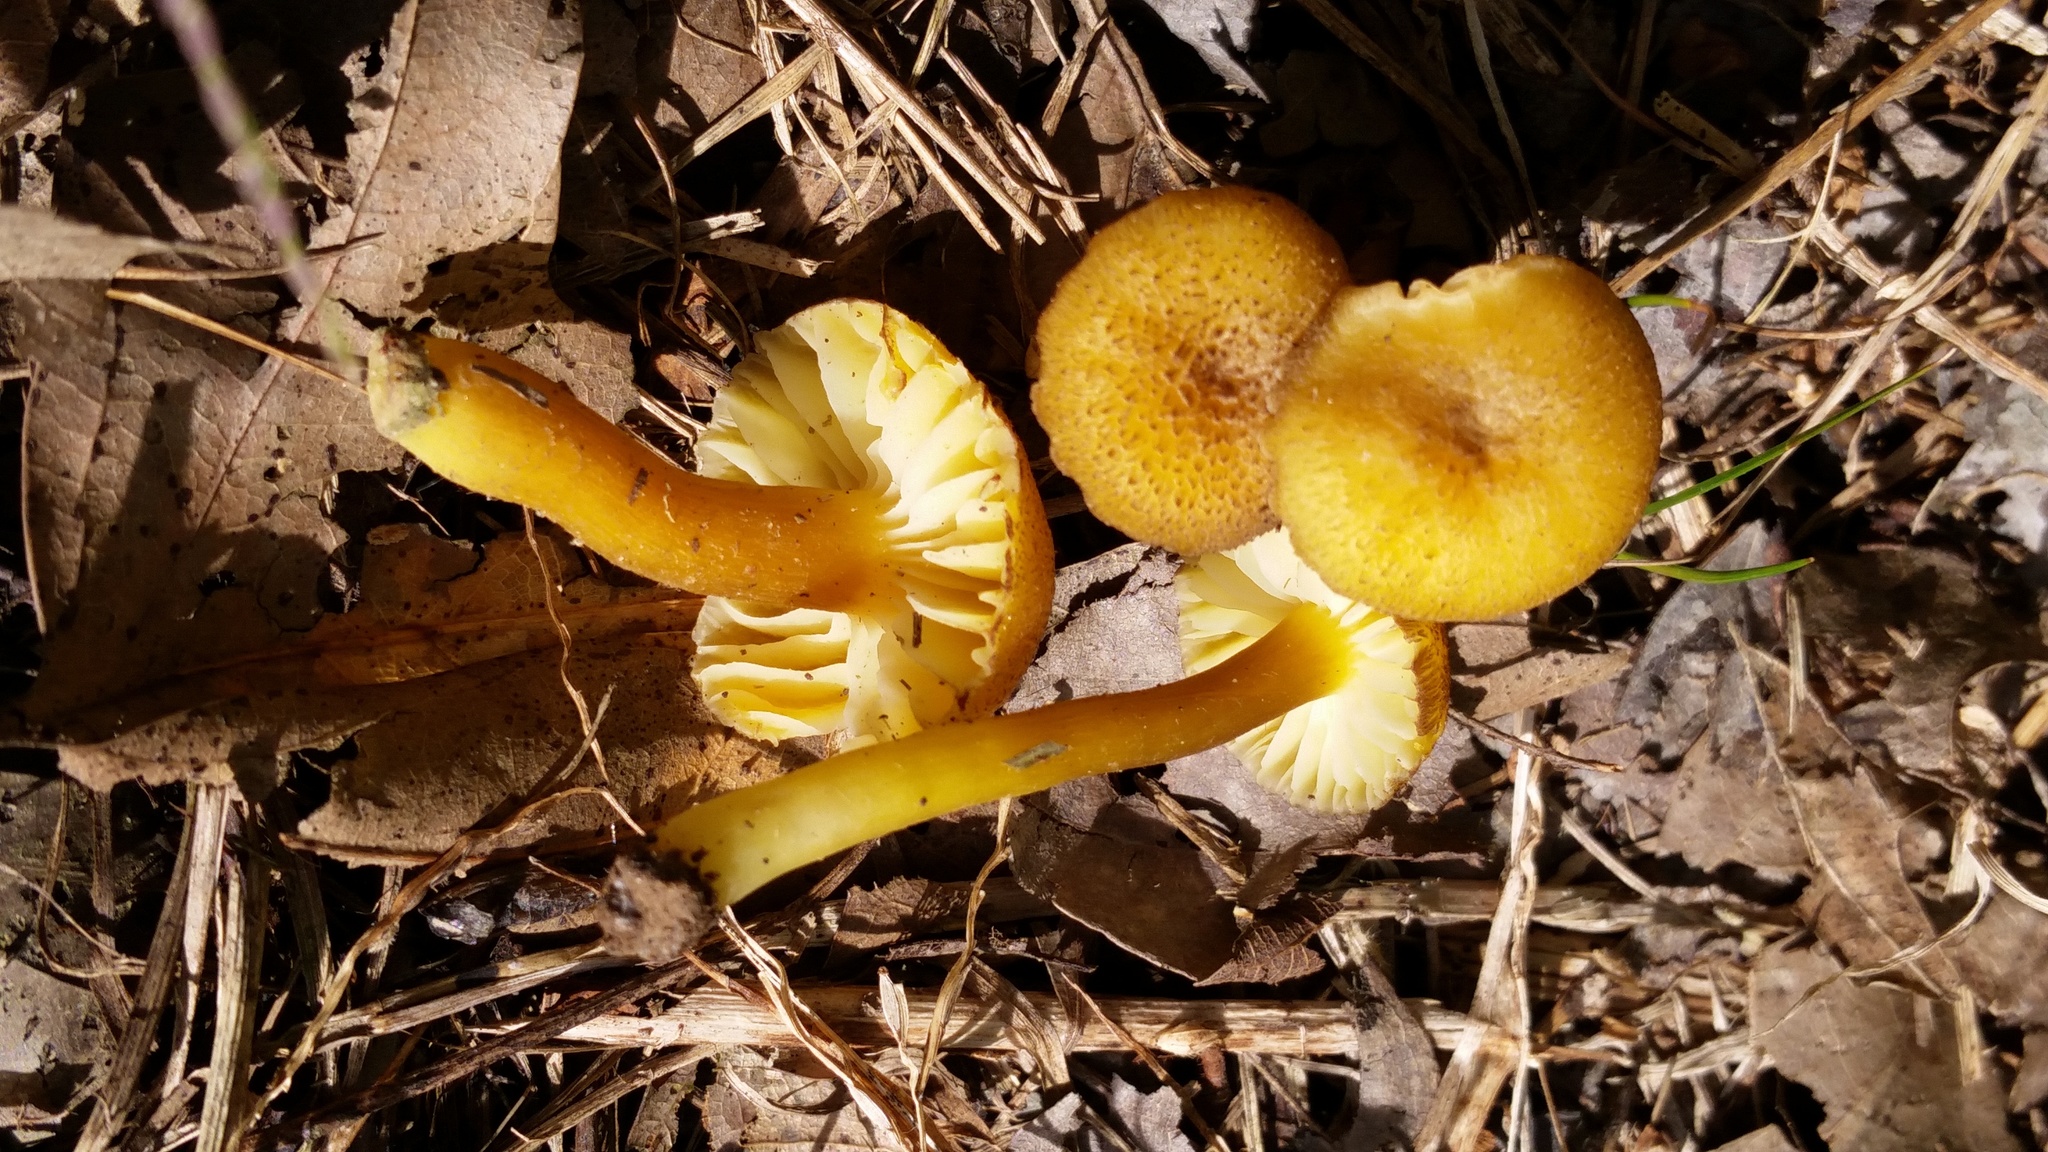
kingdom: Fungi
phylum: Basidiomycota
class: Agaricomycetes
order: Agaricales
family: Hygrophoraceae
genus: Hygrocybe
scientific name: Hygrocybe caespitosa
